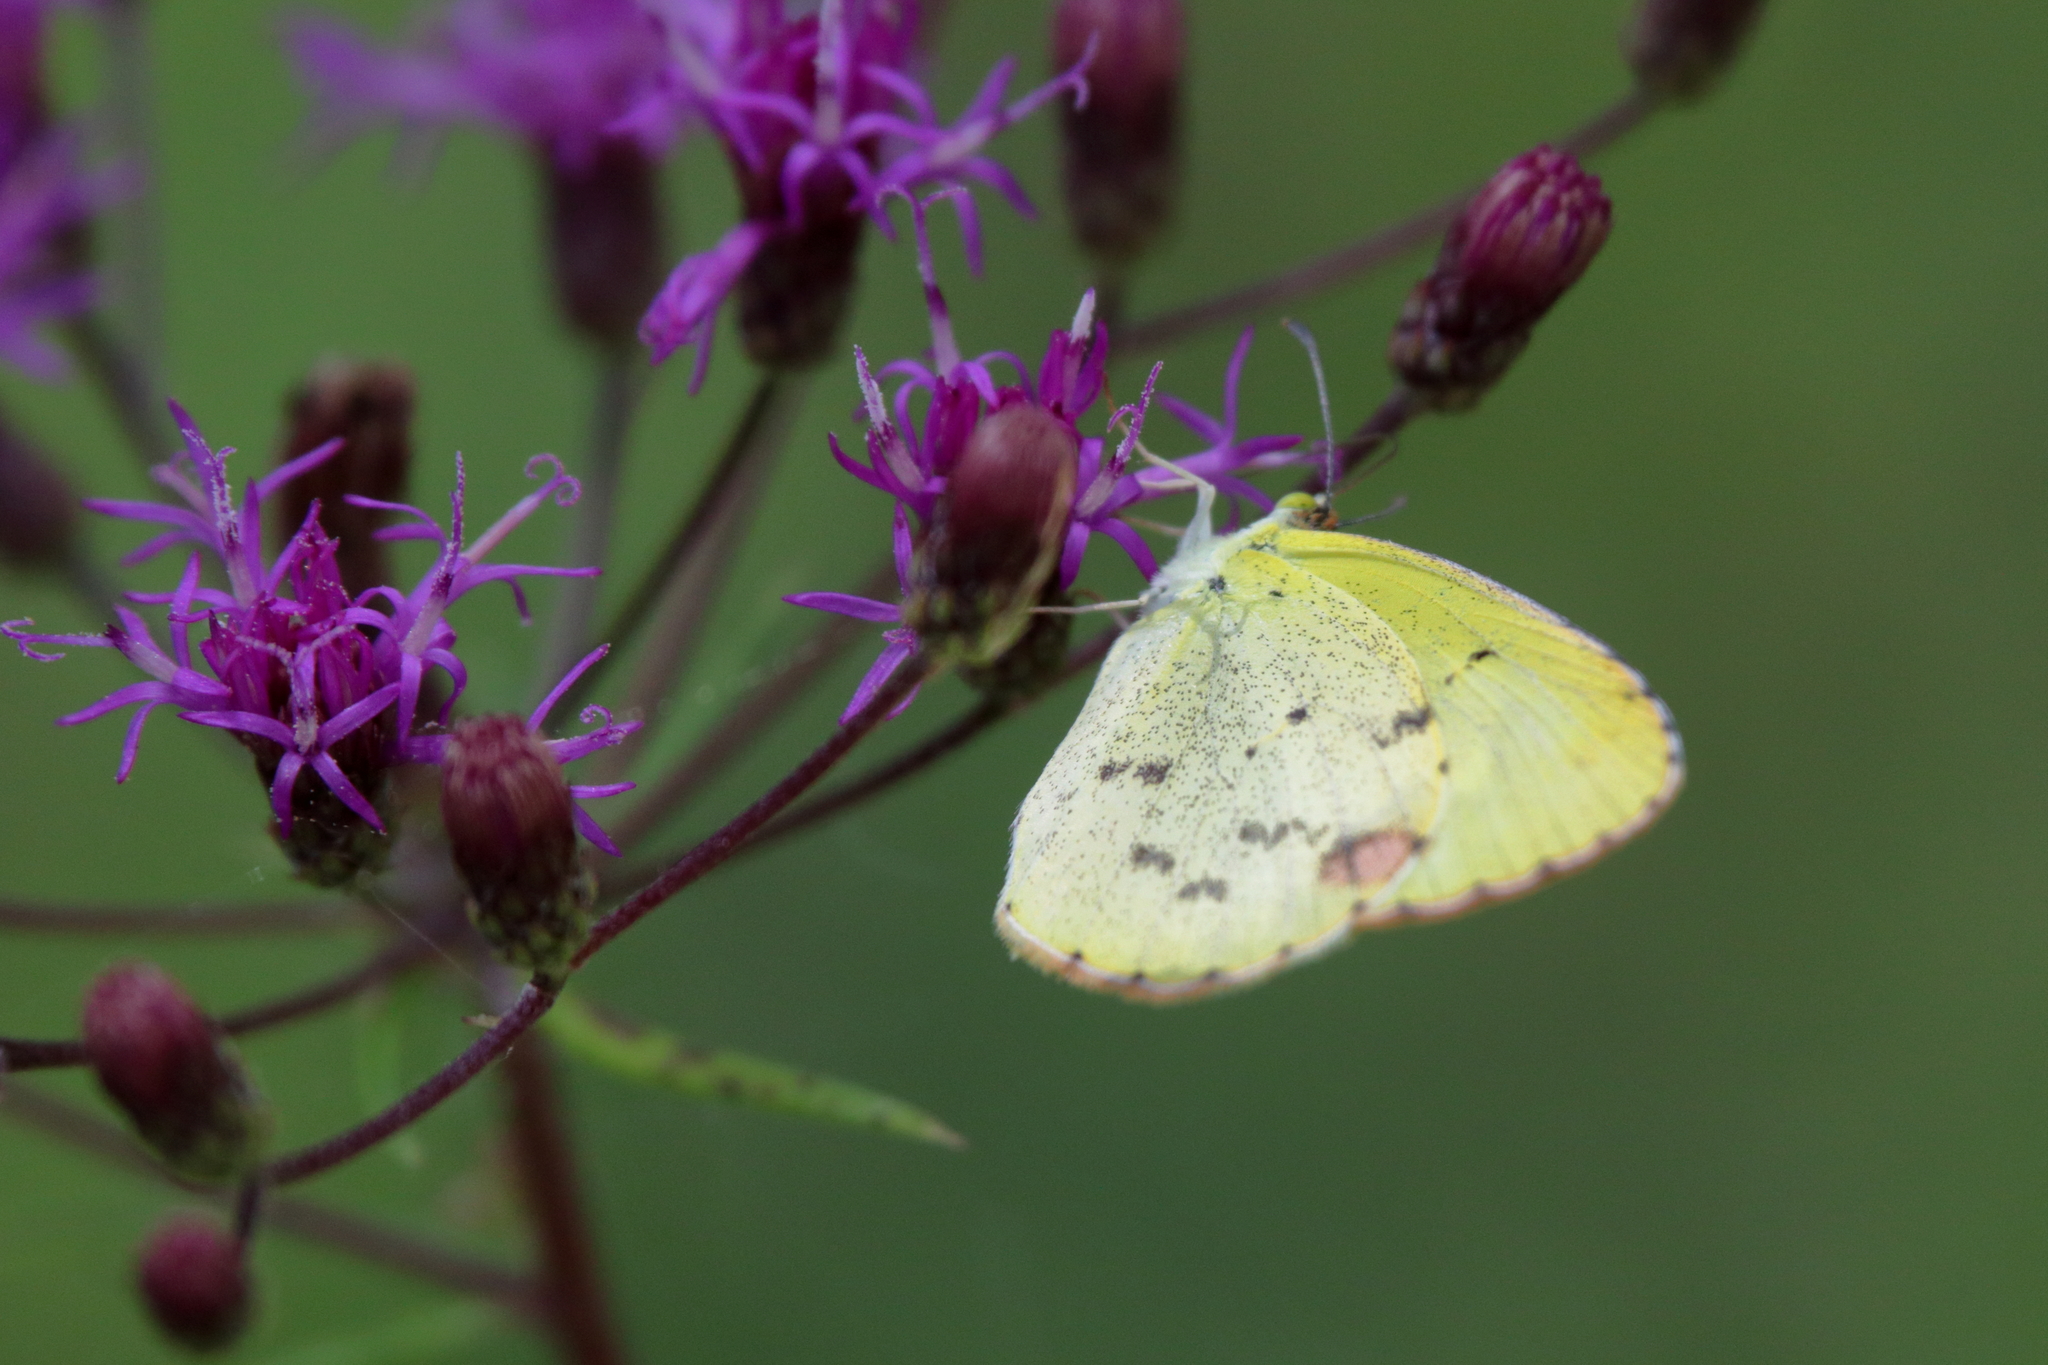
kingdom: Animalia
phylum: Arthropoda
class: Insecta
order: Lepidoptera
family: Pieridae
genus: Pyrisitia
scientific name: Pyrisitia lisa
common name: Little yellow
